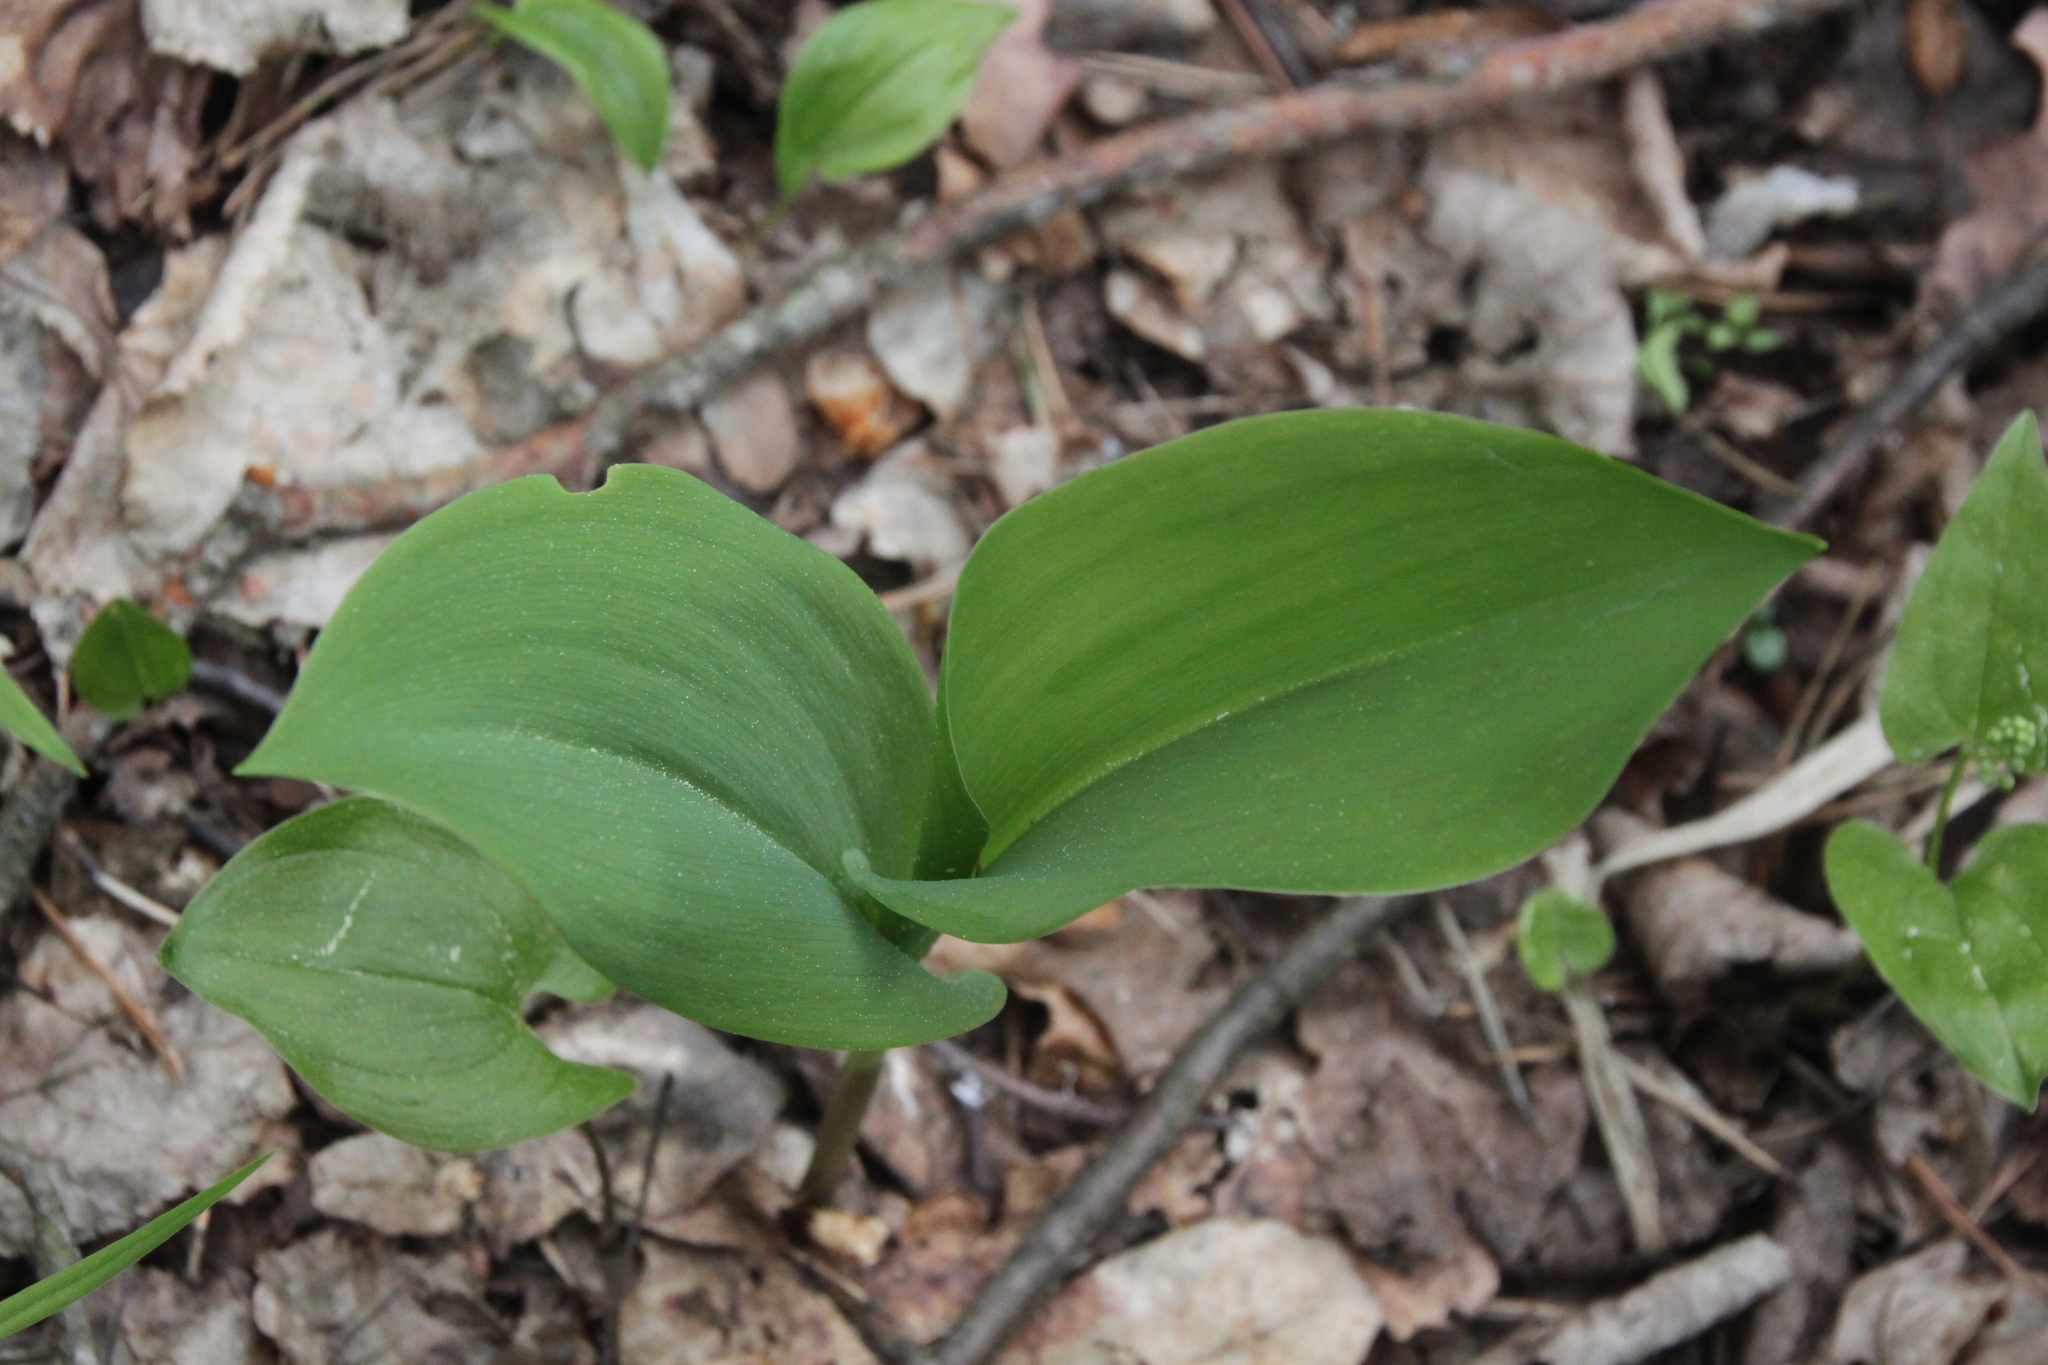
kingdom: Plantae
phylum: Tracheophyta
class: Liliopsida
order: Asparagales
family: Asparagaceae
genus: Convallaria
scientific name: Convallaria majalis
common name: Lily-of-the-valley
